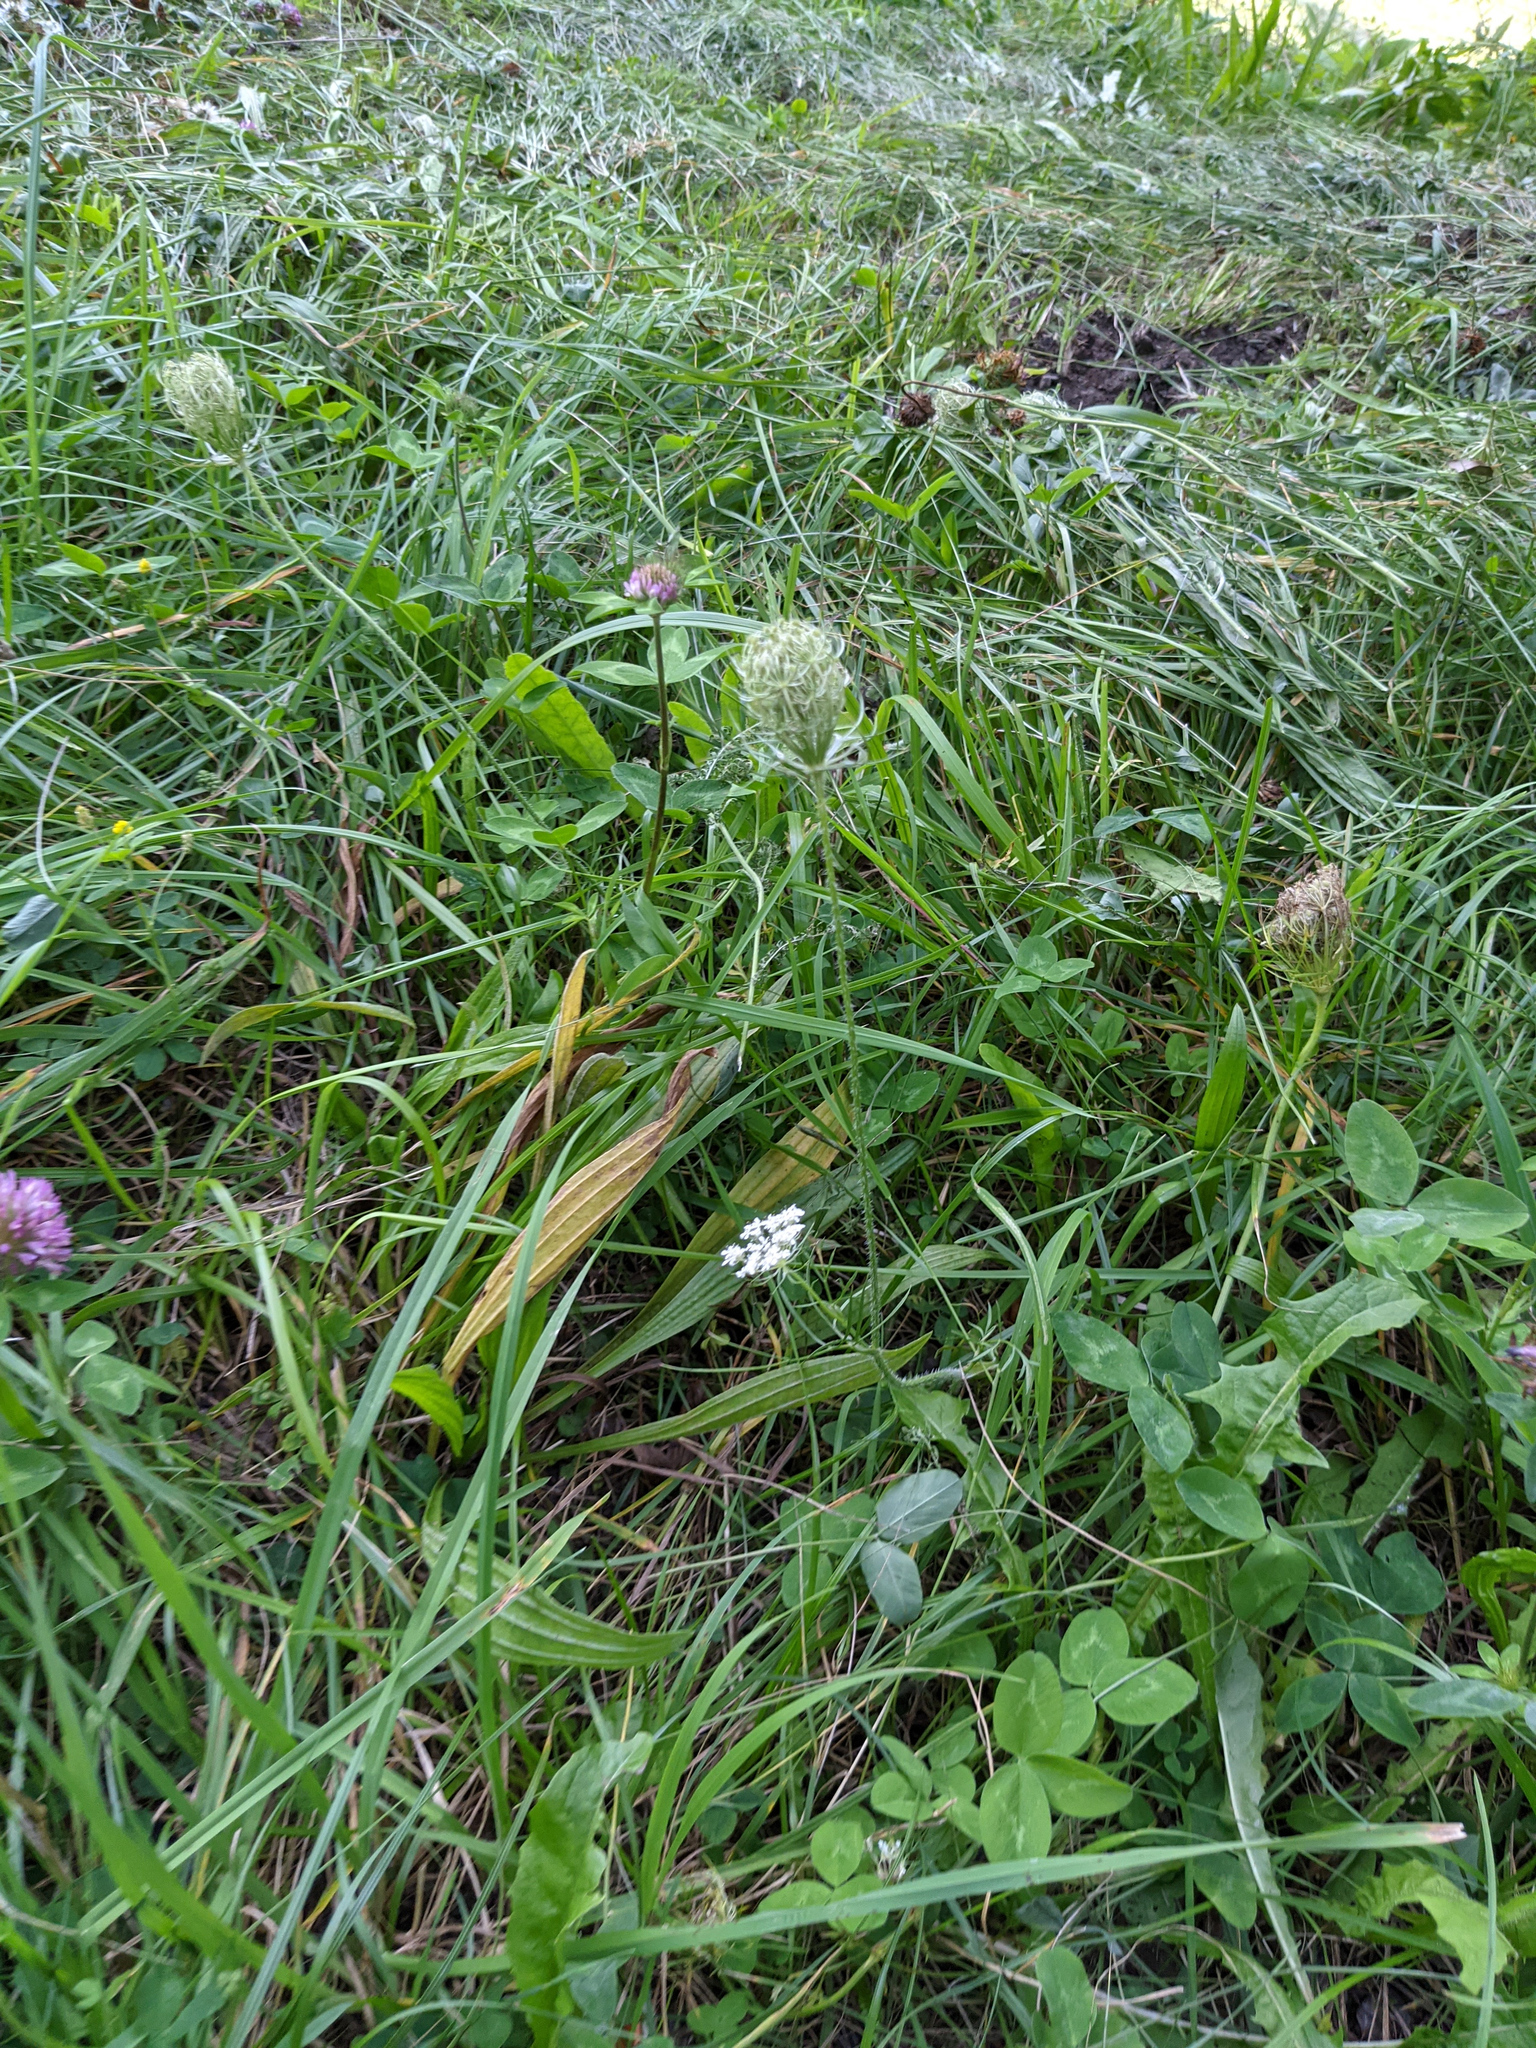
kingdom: Plantae
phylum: Tracheophyta
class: Magnoliopsida
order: Apiales
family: Apiaceae
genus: Daucus
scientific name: Daucus carota
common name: Wild carrot
